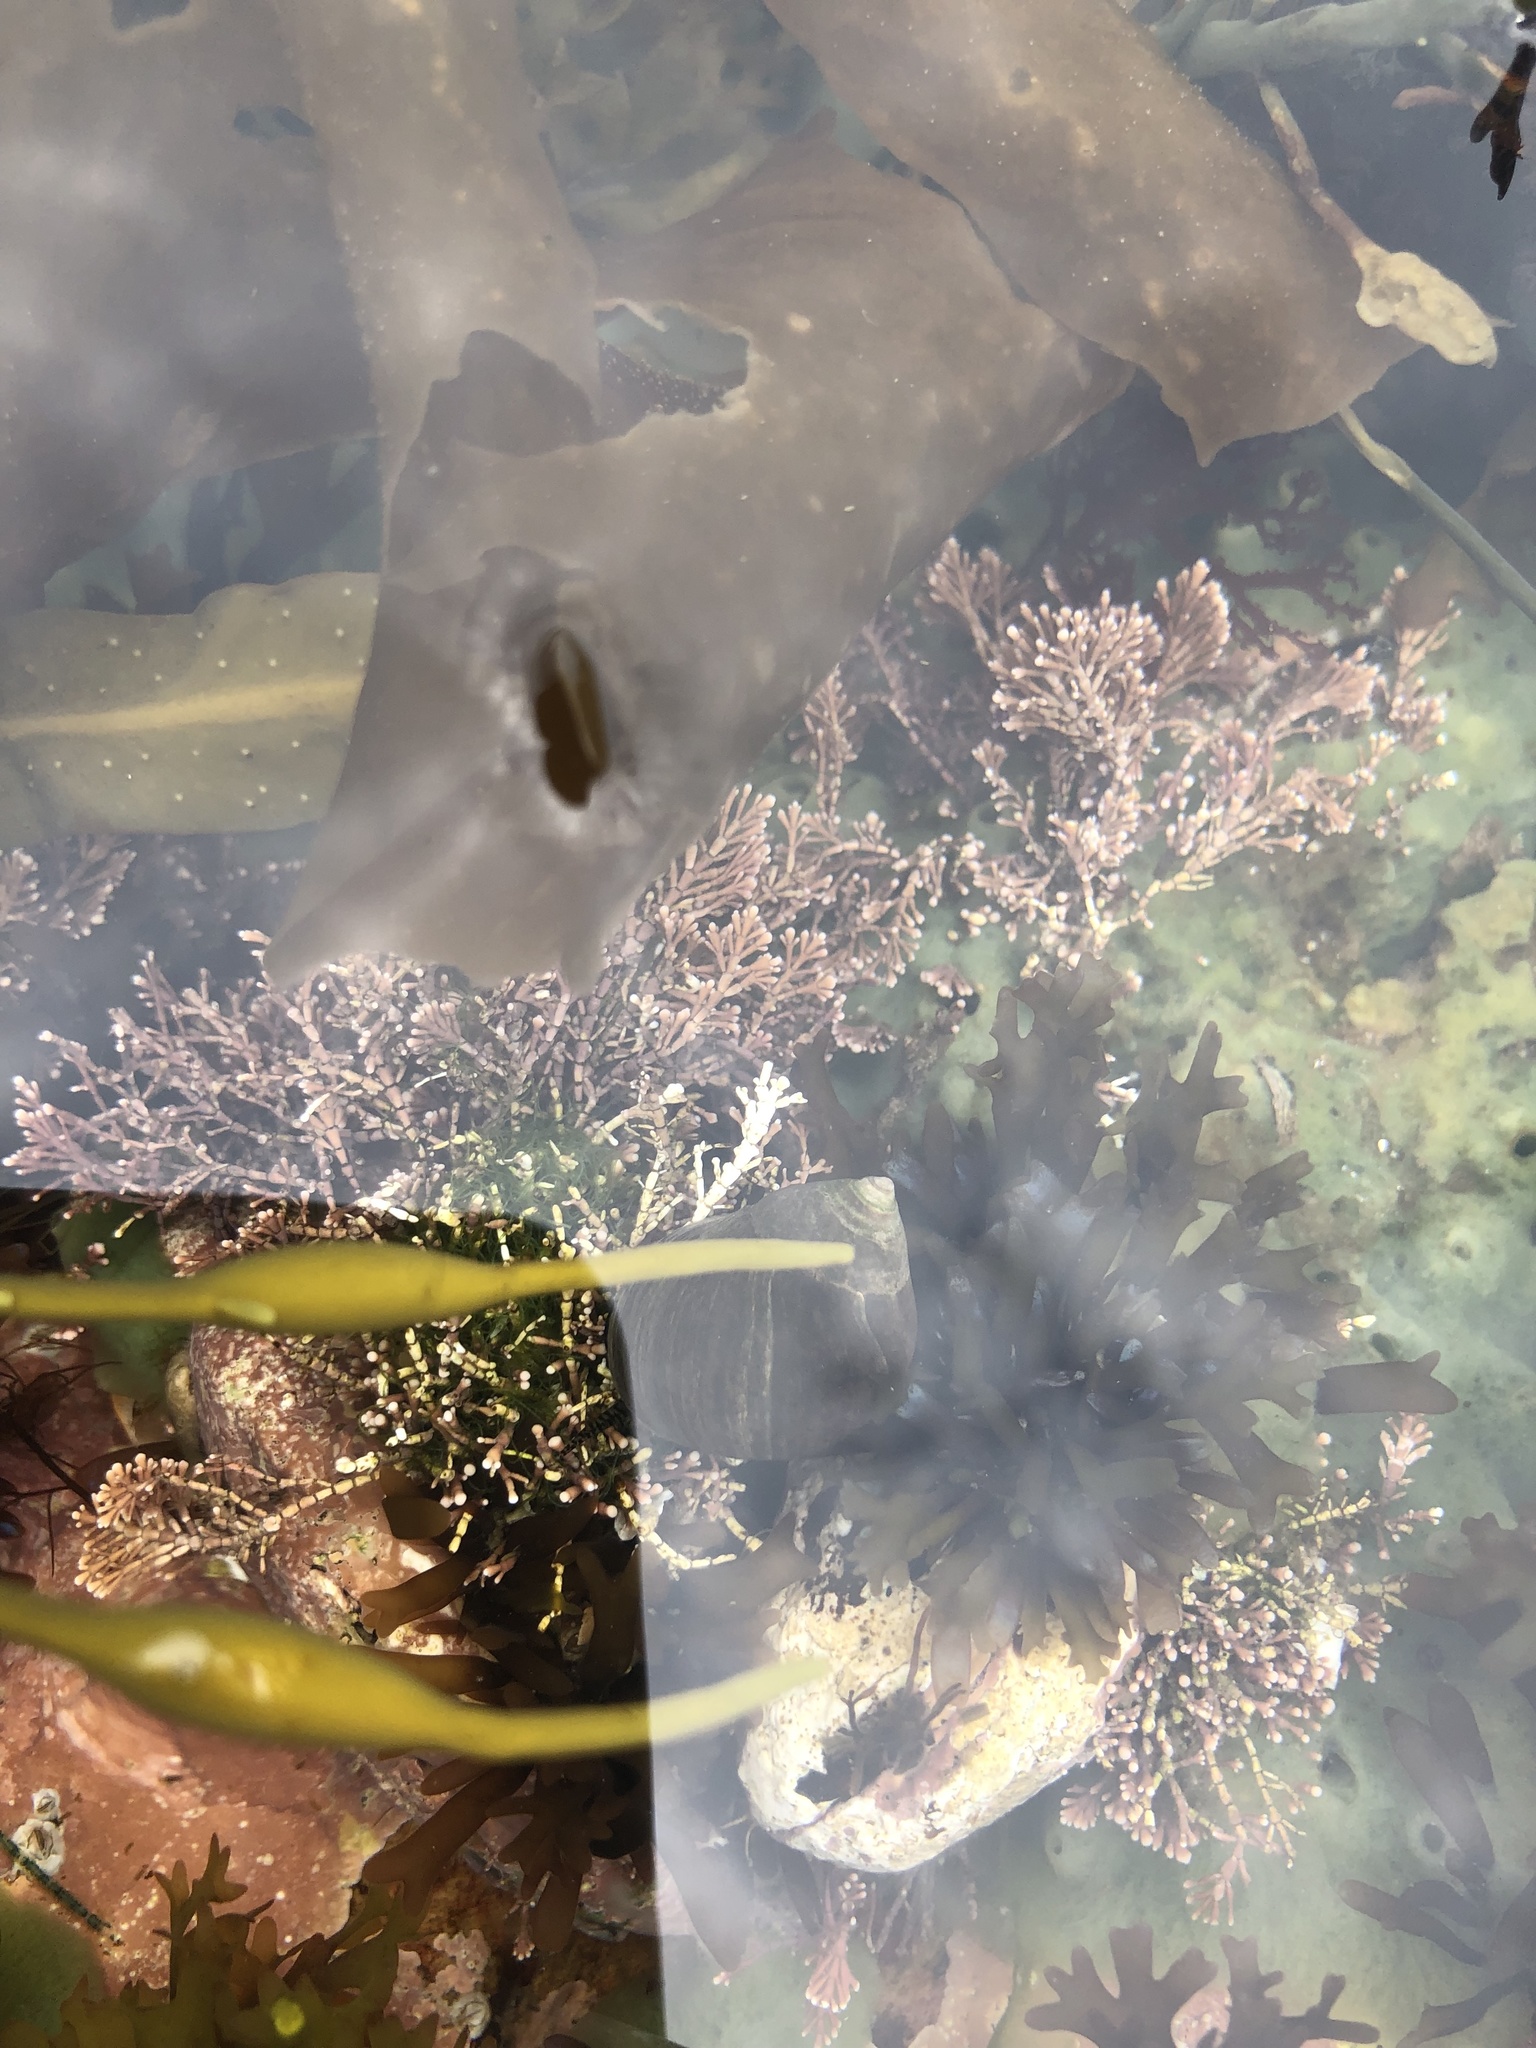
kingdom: Plantae
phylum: Rhodophyta
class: Florideophyceae
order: Corallinales
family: Corallinaceae
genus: Corallina
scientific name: Corallina officinalis
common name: Coral weed
